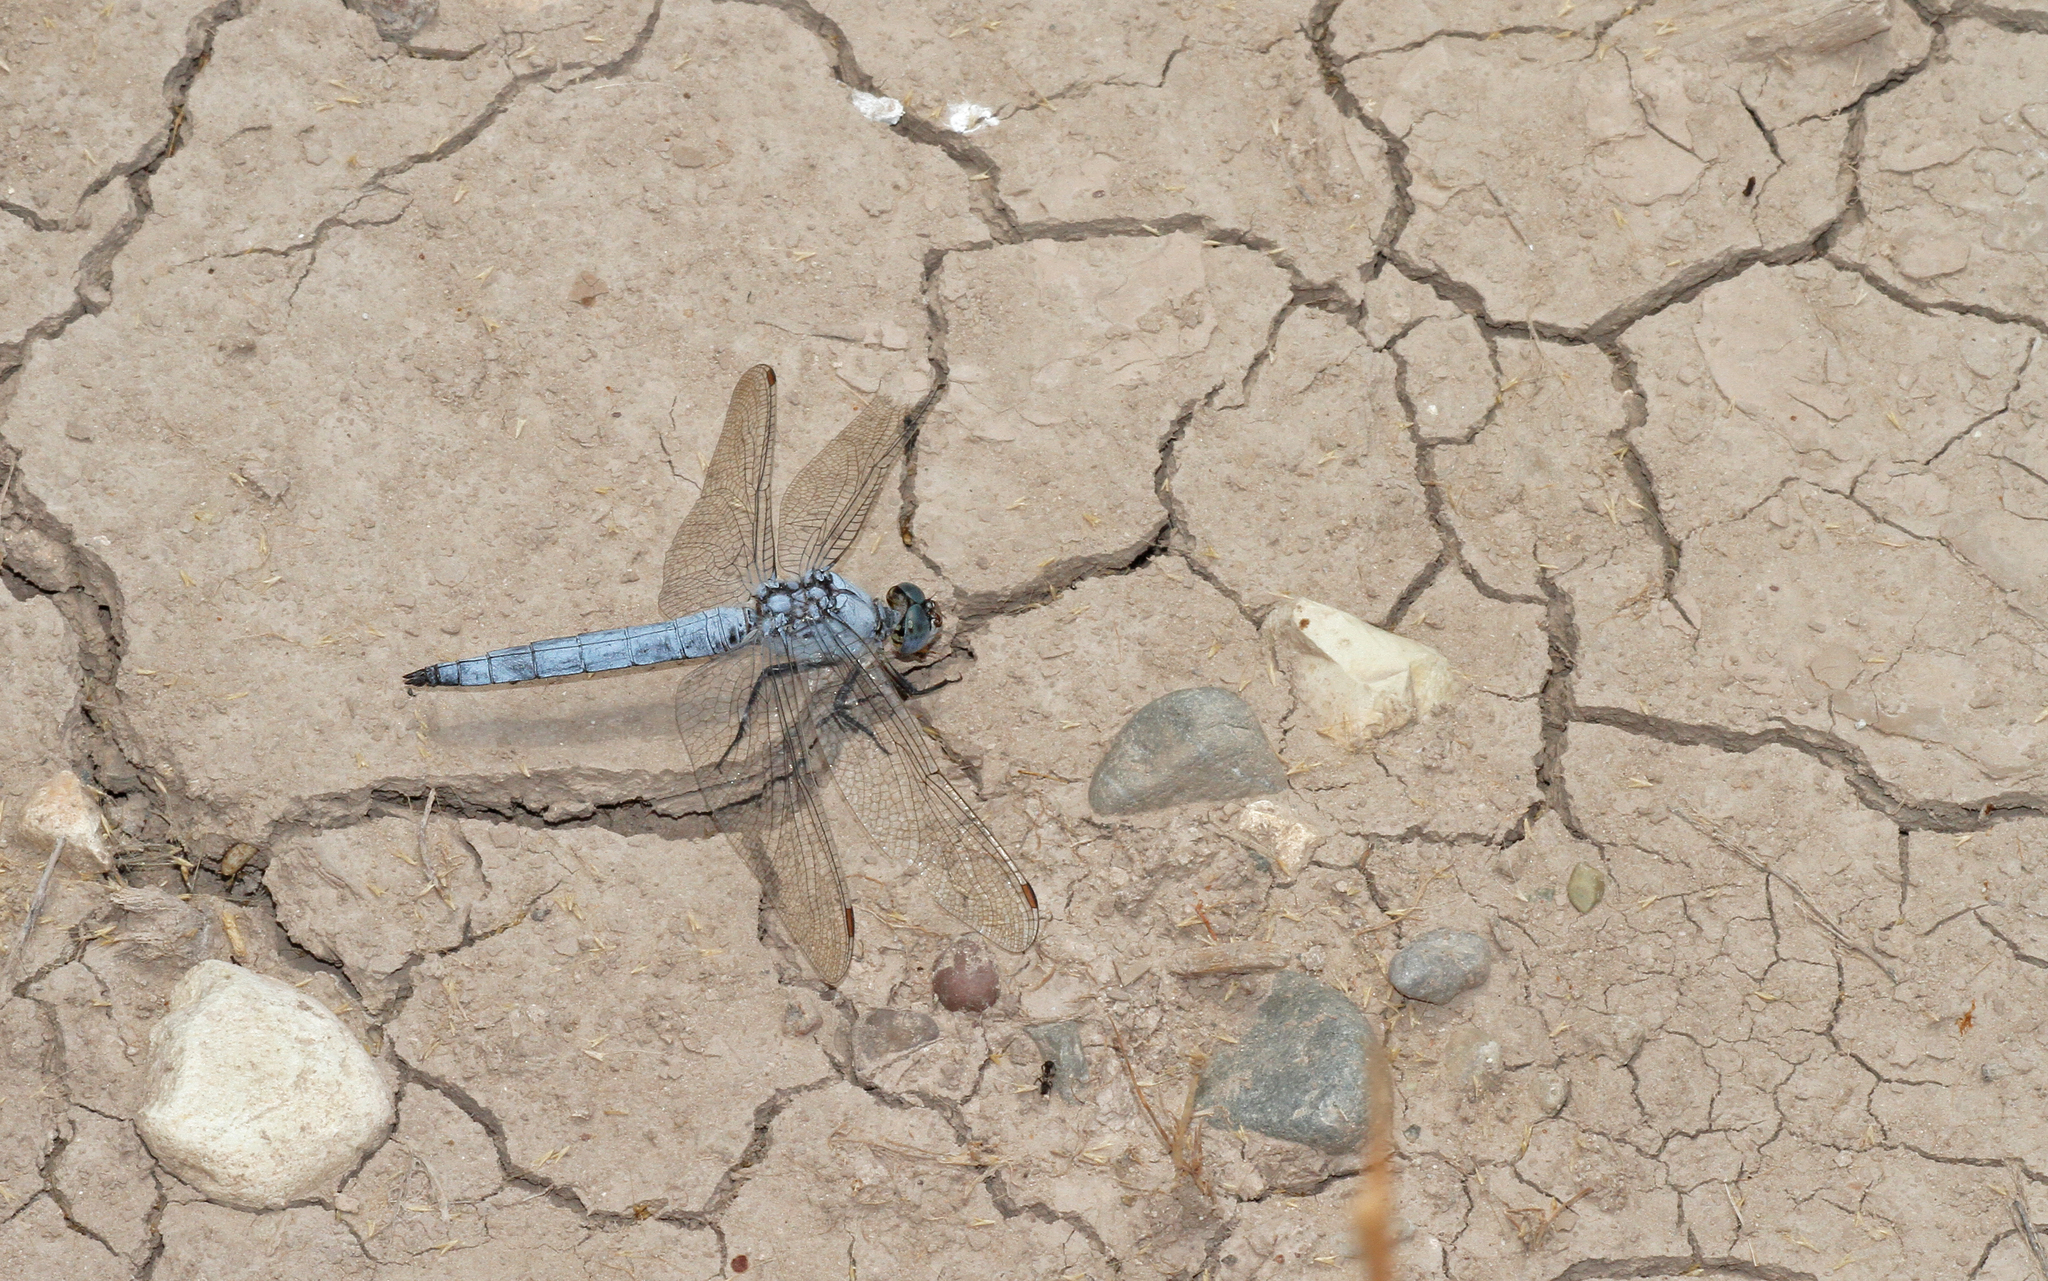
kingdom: Animalia
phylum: Arthropoda
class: Insecta
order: Odonata
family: Libellulidae
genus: Orthetrum
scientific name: Orthetrum brunneum
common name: Southern skimmer
